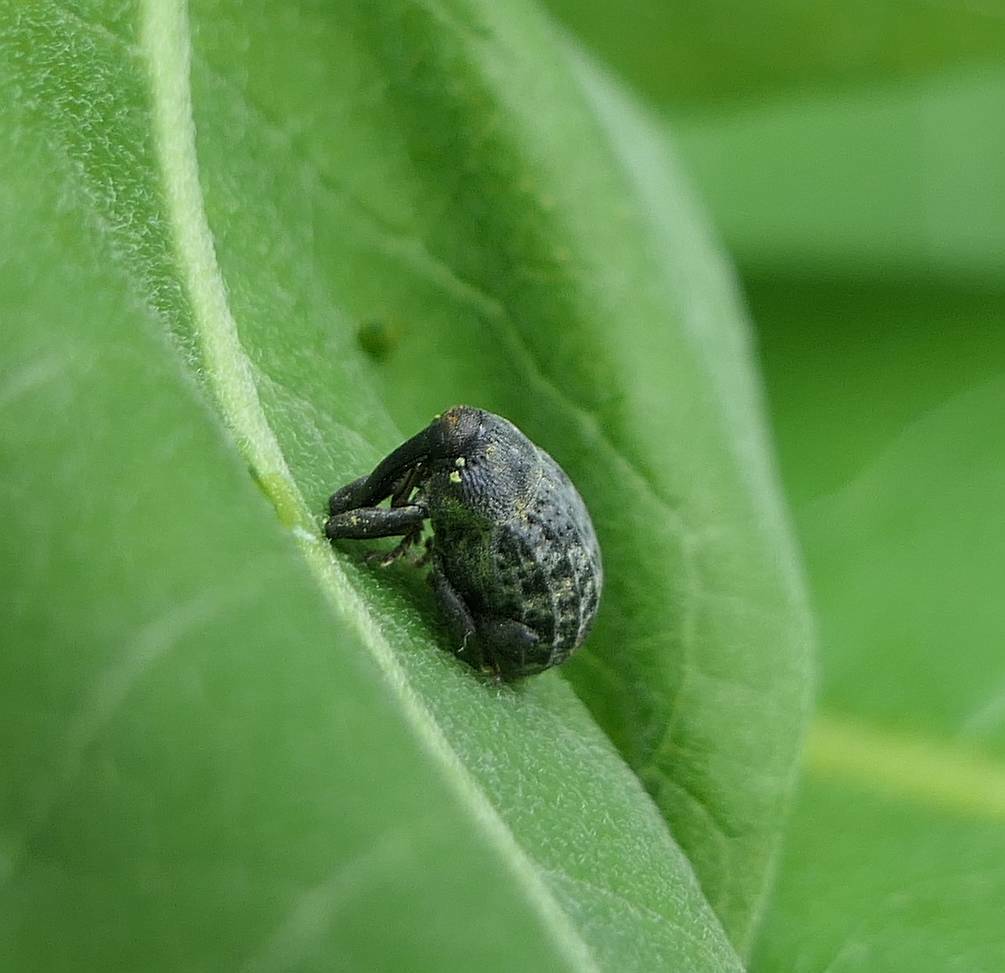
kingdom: Animalia
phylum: Arthropoda
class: Insecta
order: Coleoptera
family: Curculionidae
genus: Rhyssomatus
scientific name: Rhyssomatus lineaticollis
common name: Milkweed stem weevil
